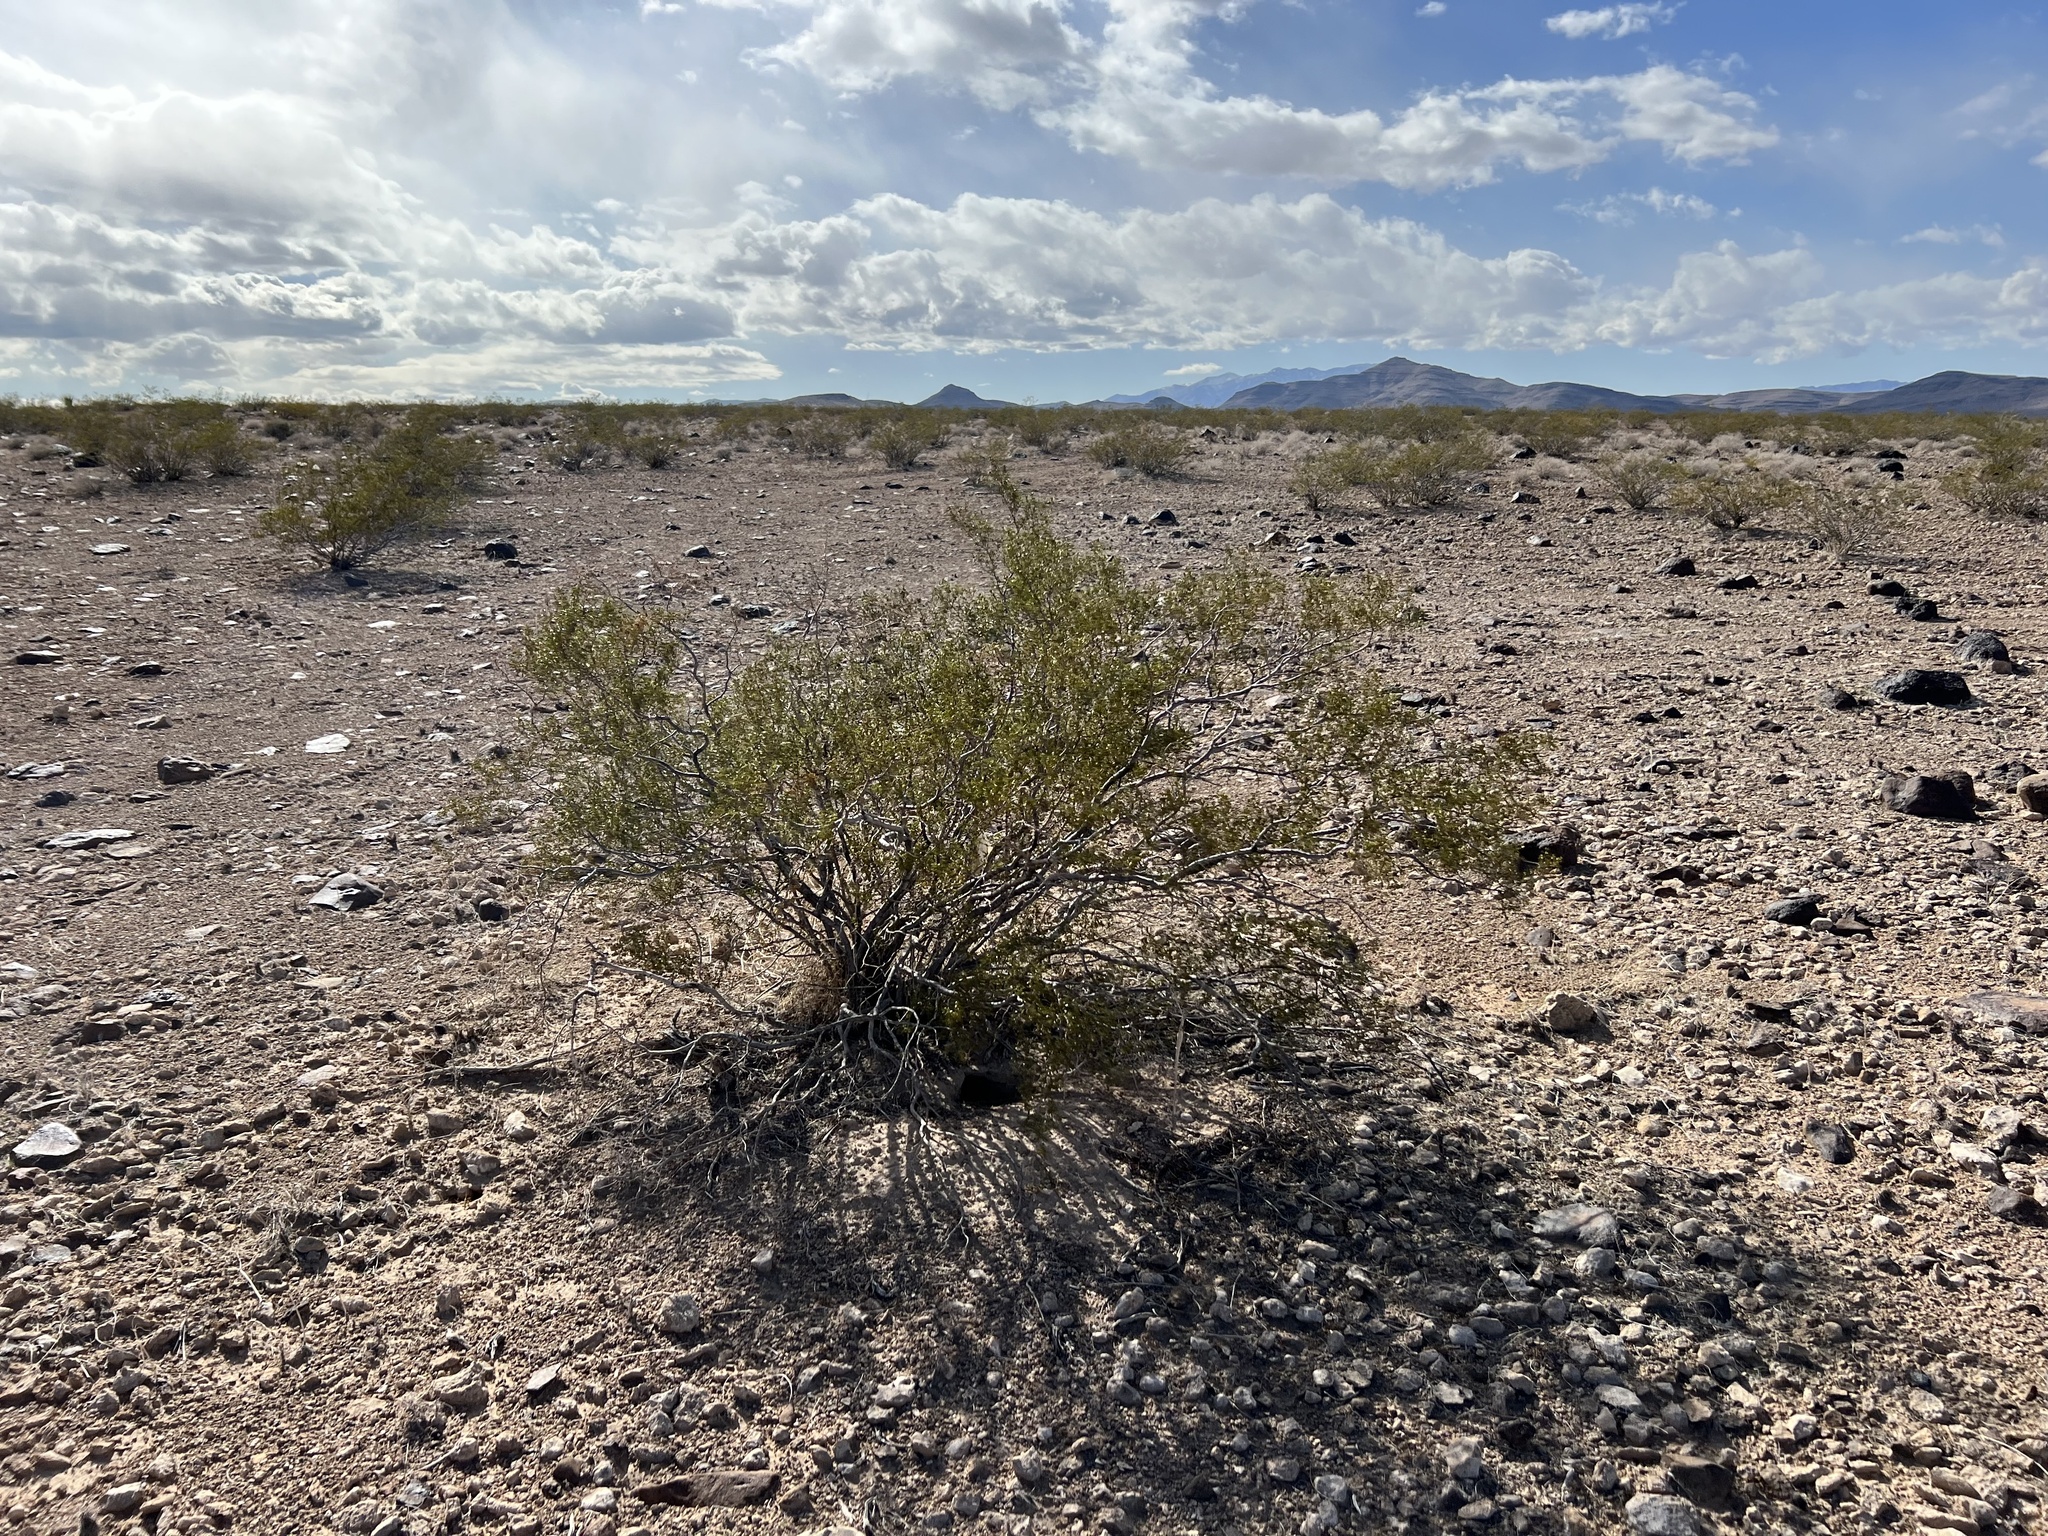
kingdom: Plantae
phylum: Tracheophyta
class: Magnoliopsida
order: Zygophyllales
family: Zygophyllaceae
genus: Larrea
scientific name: Larrea tridentata
